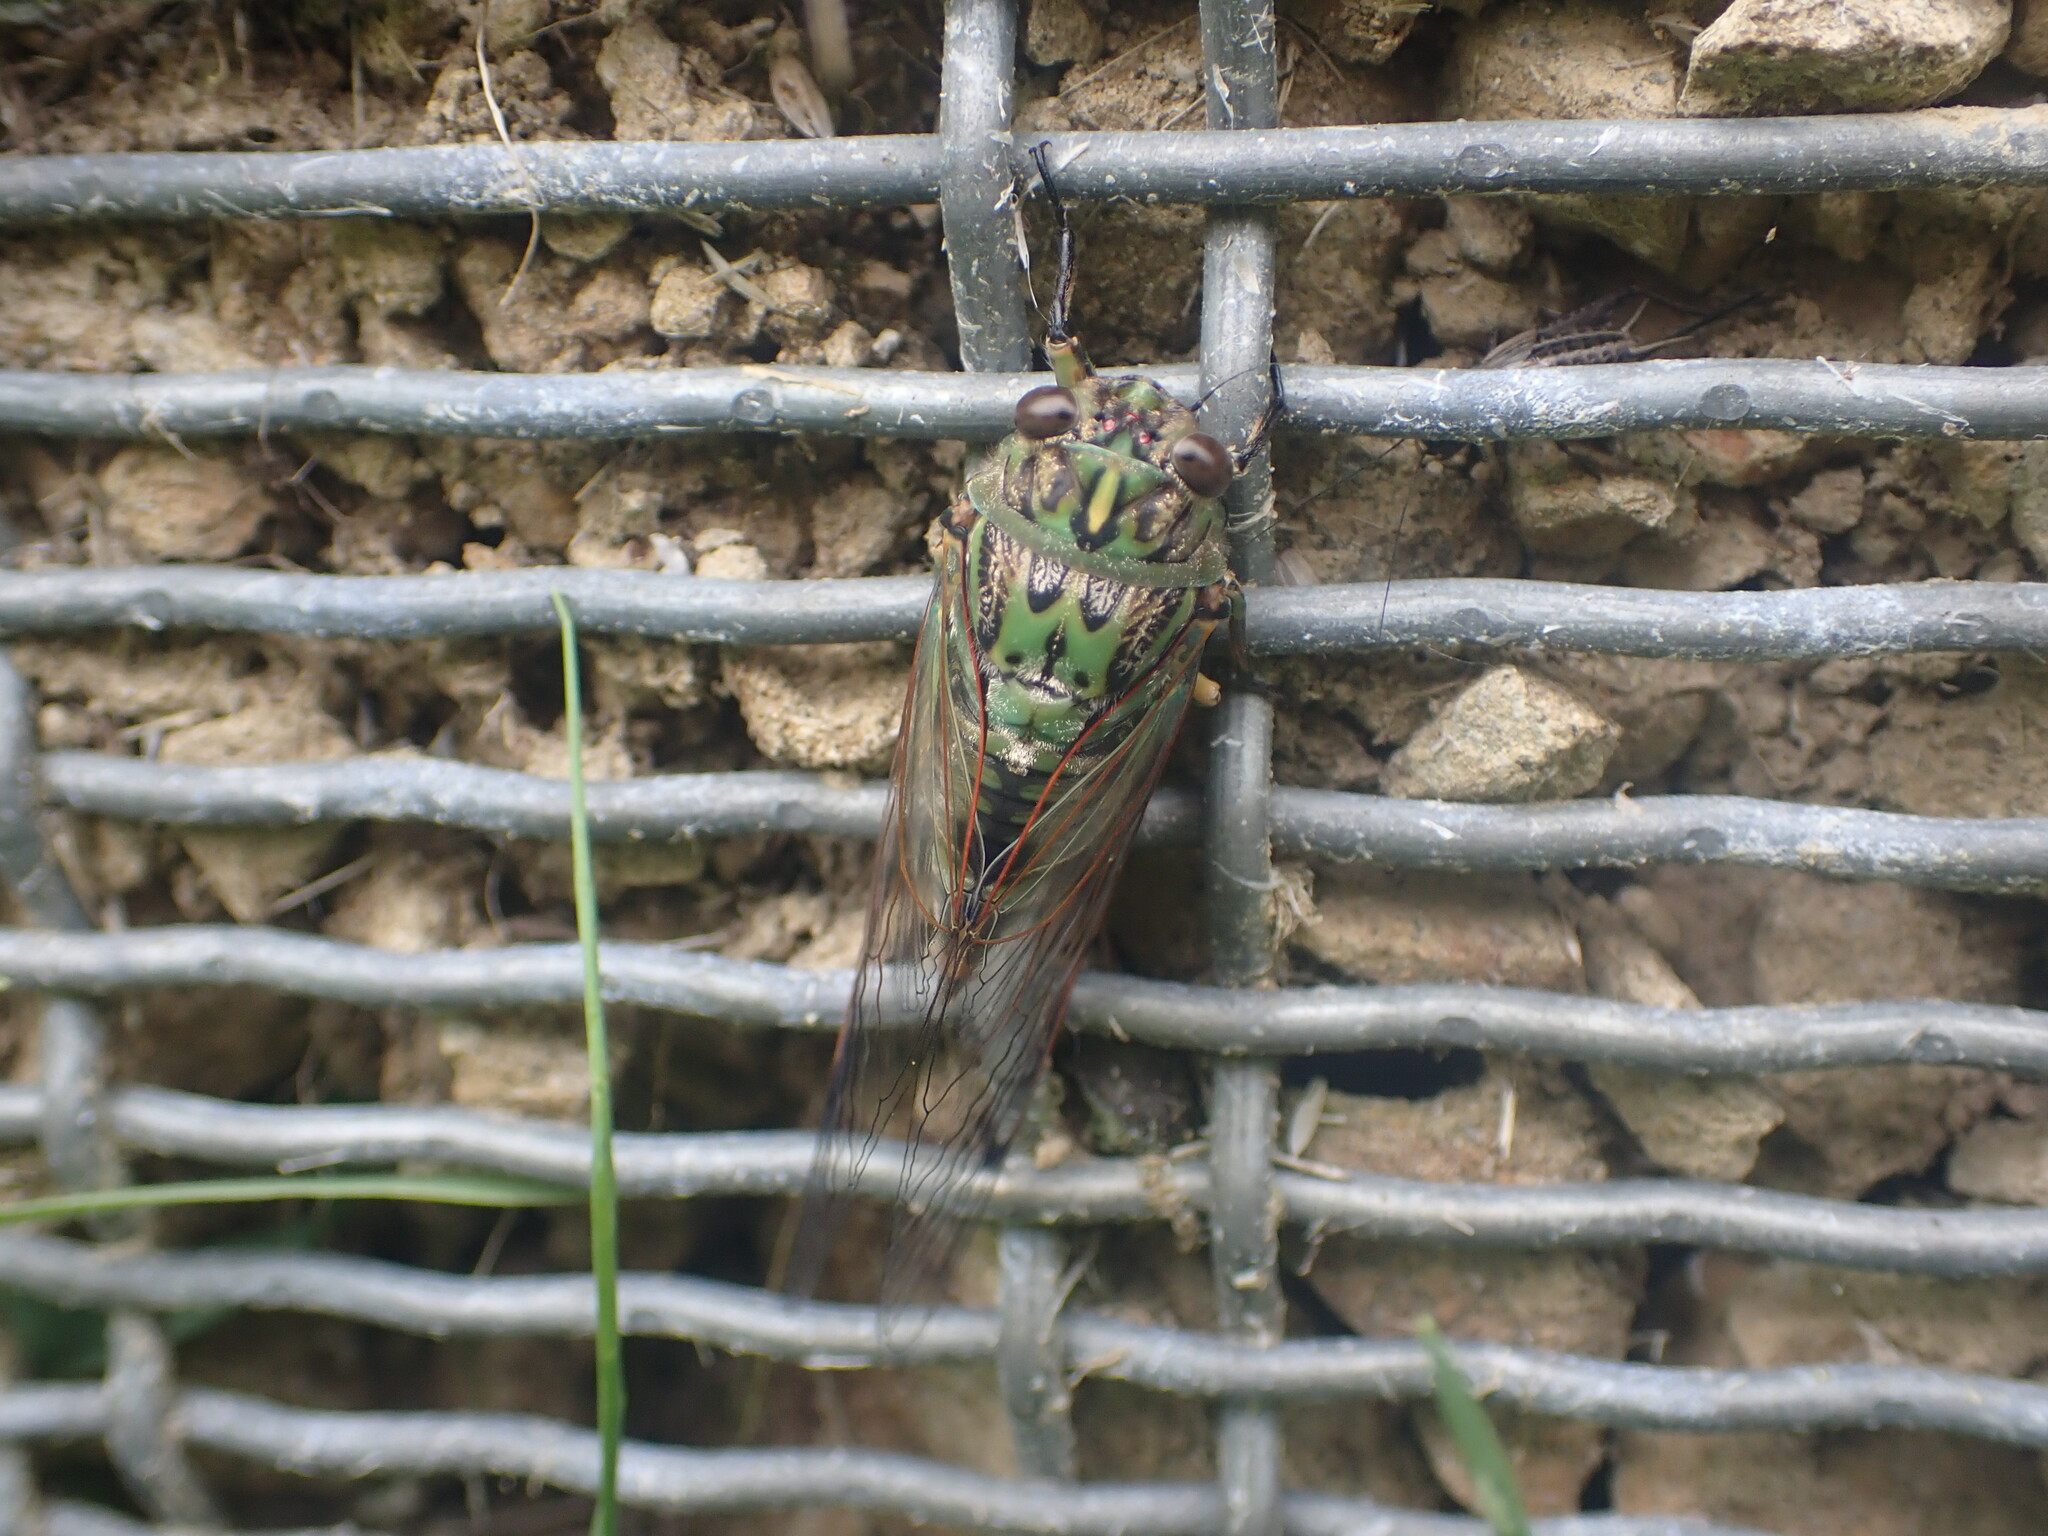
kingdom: Animalia
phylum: Arthropoda
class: Insecta
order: Hemiptera
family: Cicadidae
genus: Amphipsalta
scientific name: Amphipsalta zelandica
